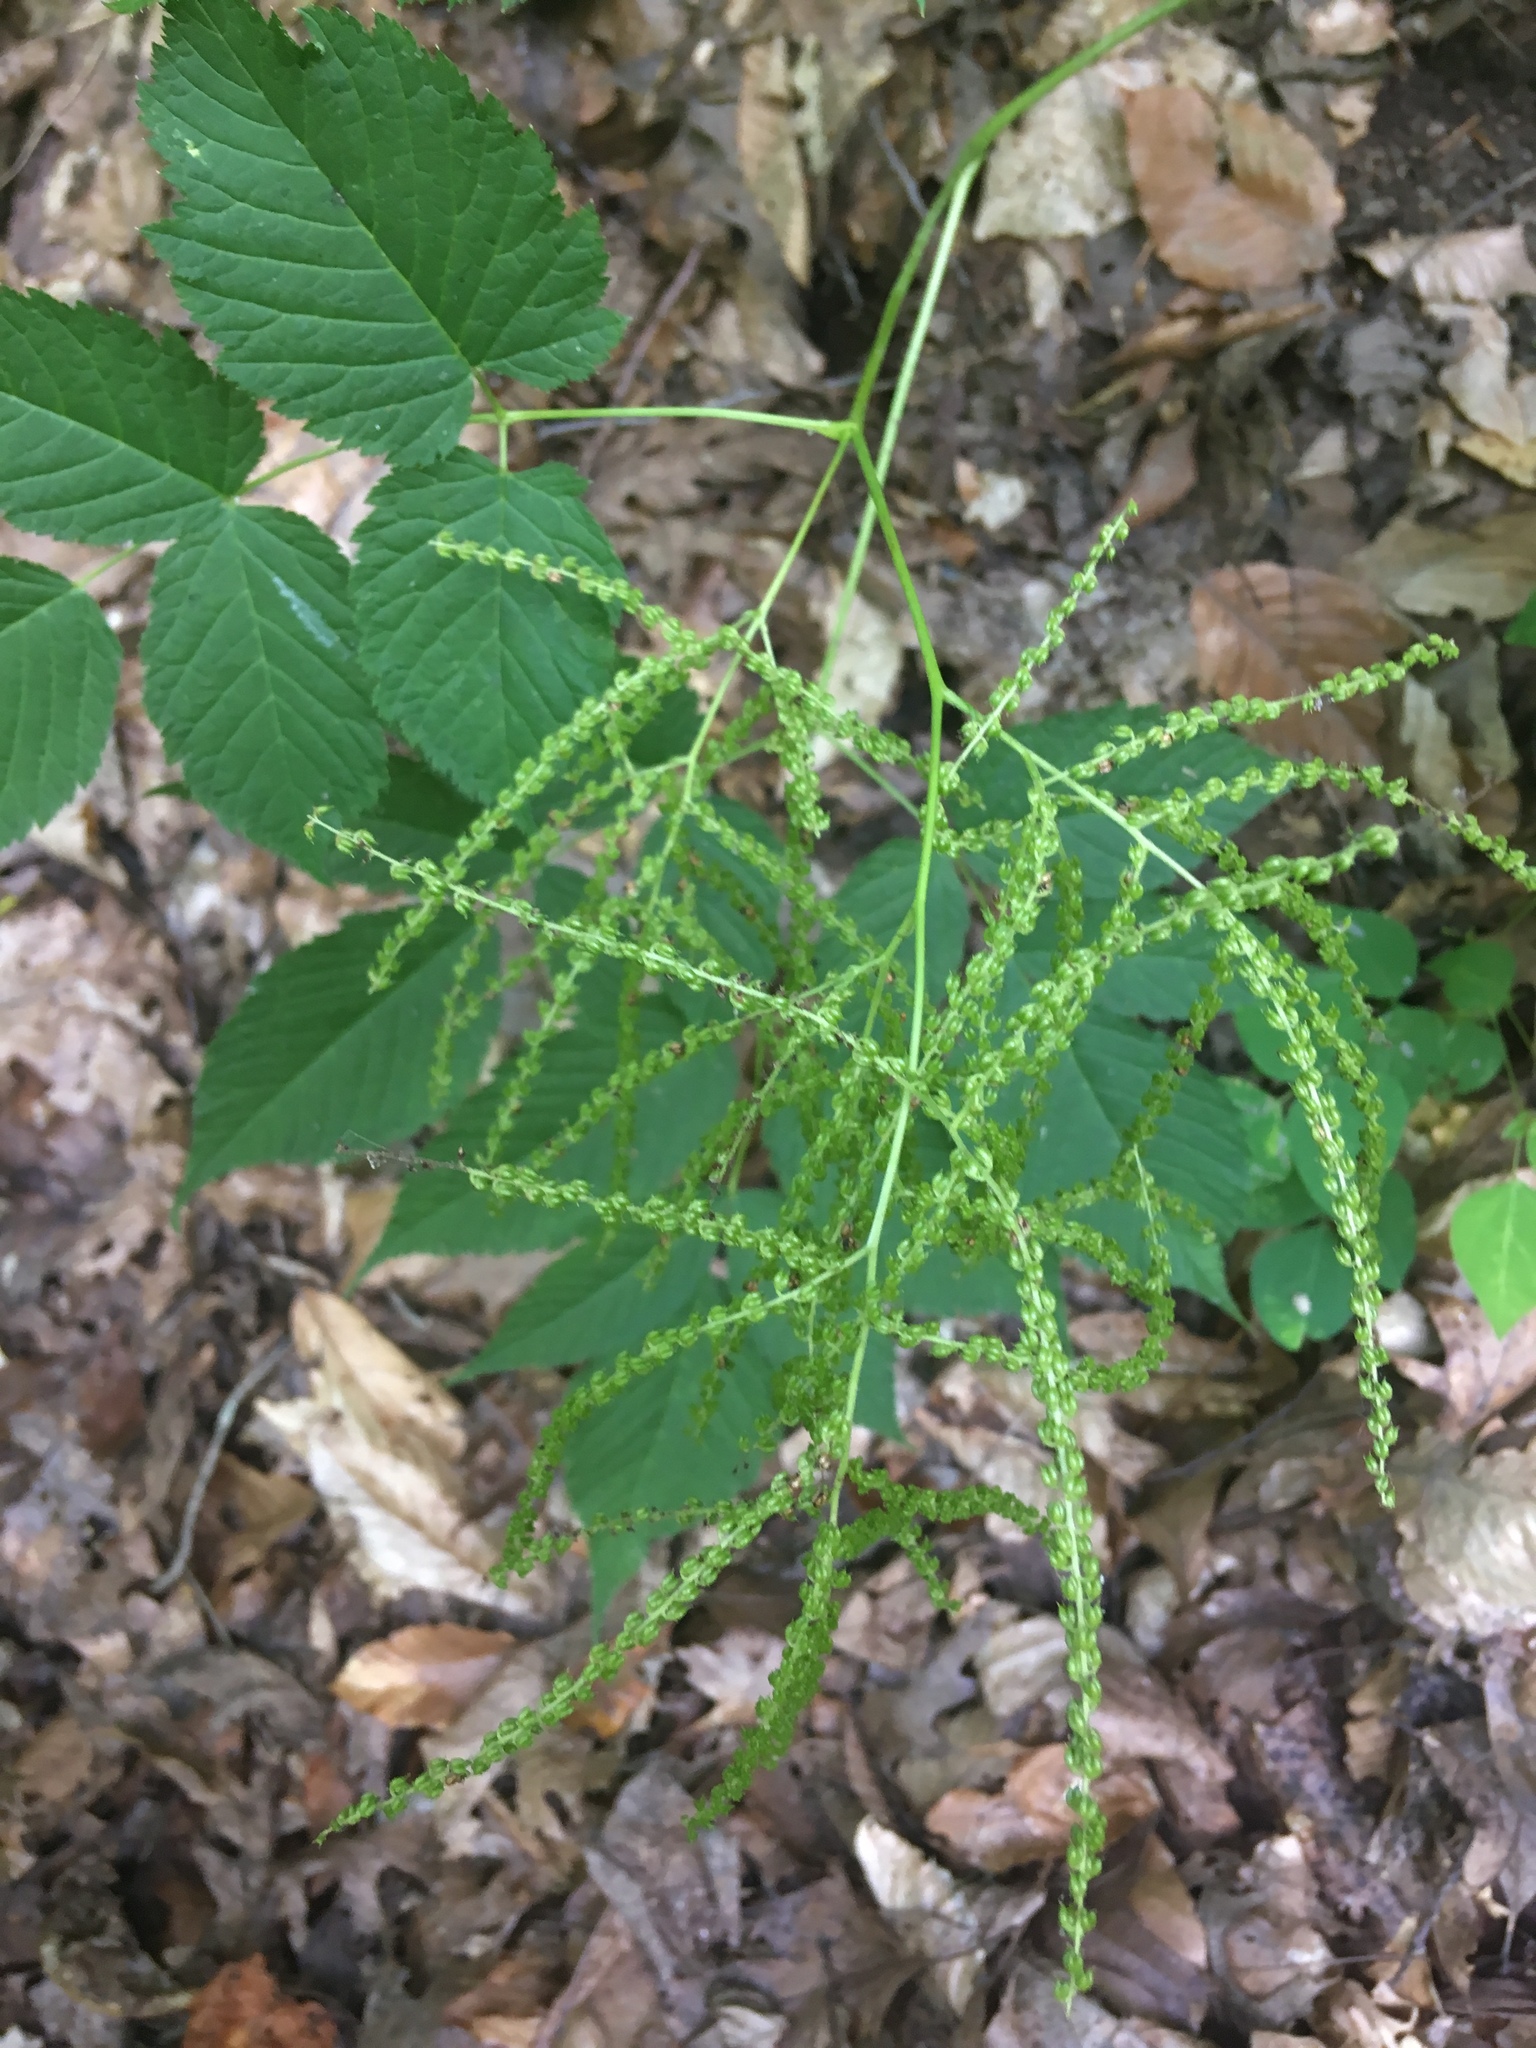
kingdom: Plantae
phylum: Tracheophyta
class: Magnoliopsida
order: Rosales
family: Rosaceae
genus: Aruncus
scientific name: Aruncus dioicus
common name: Buck's-beard
